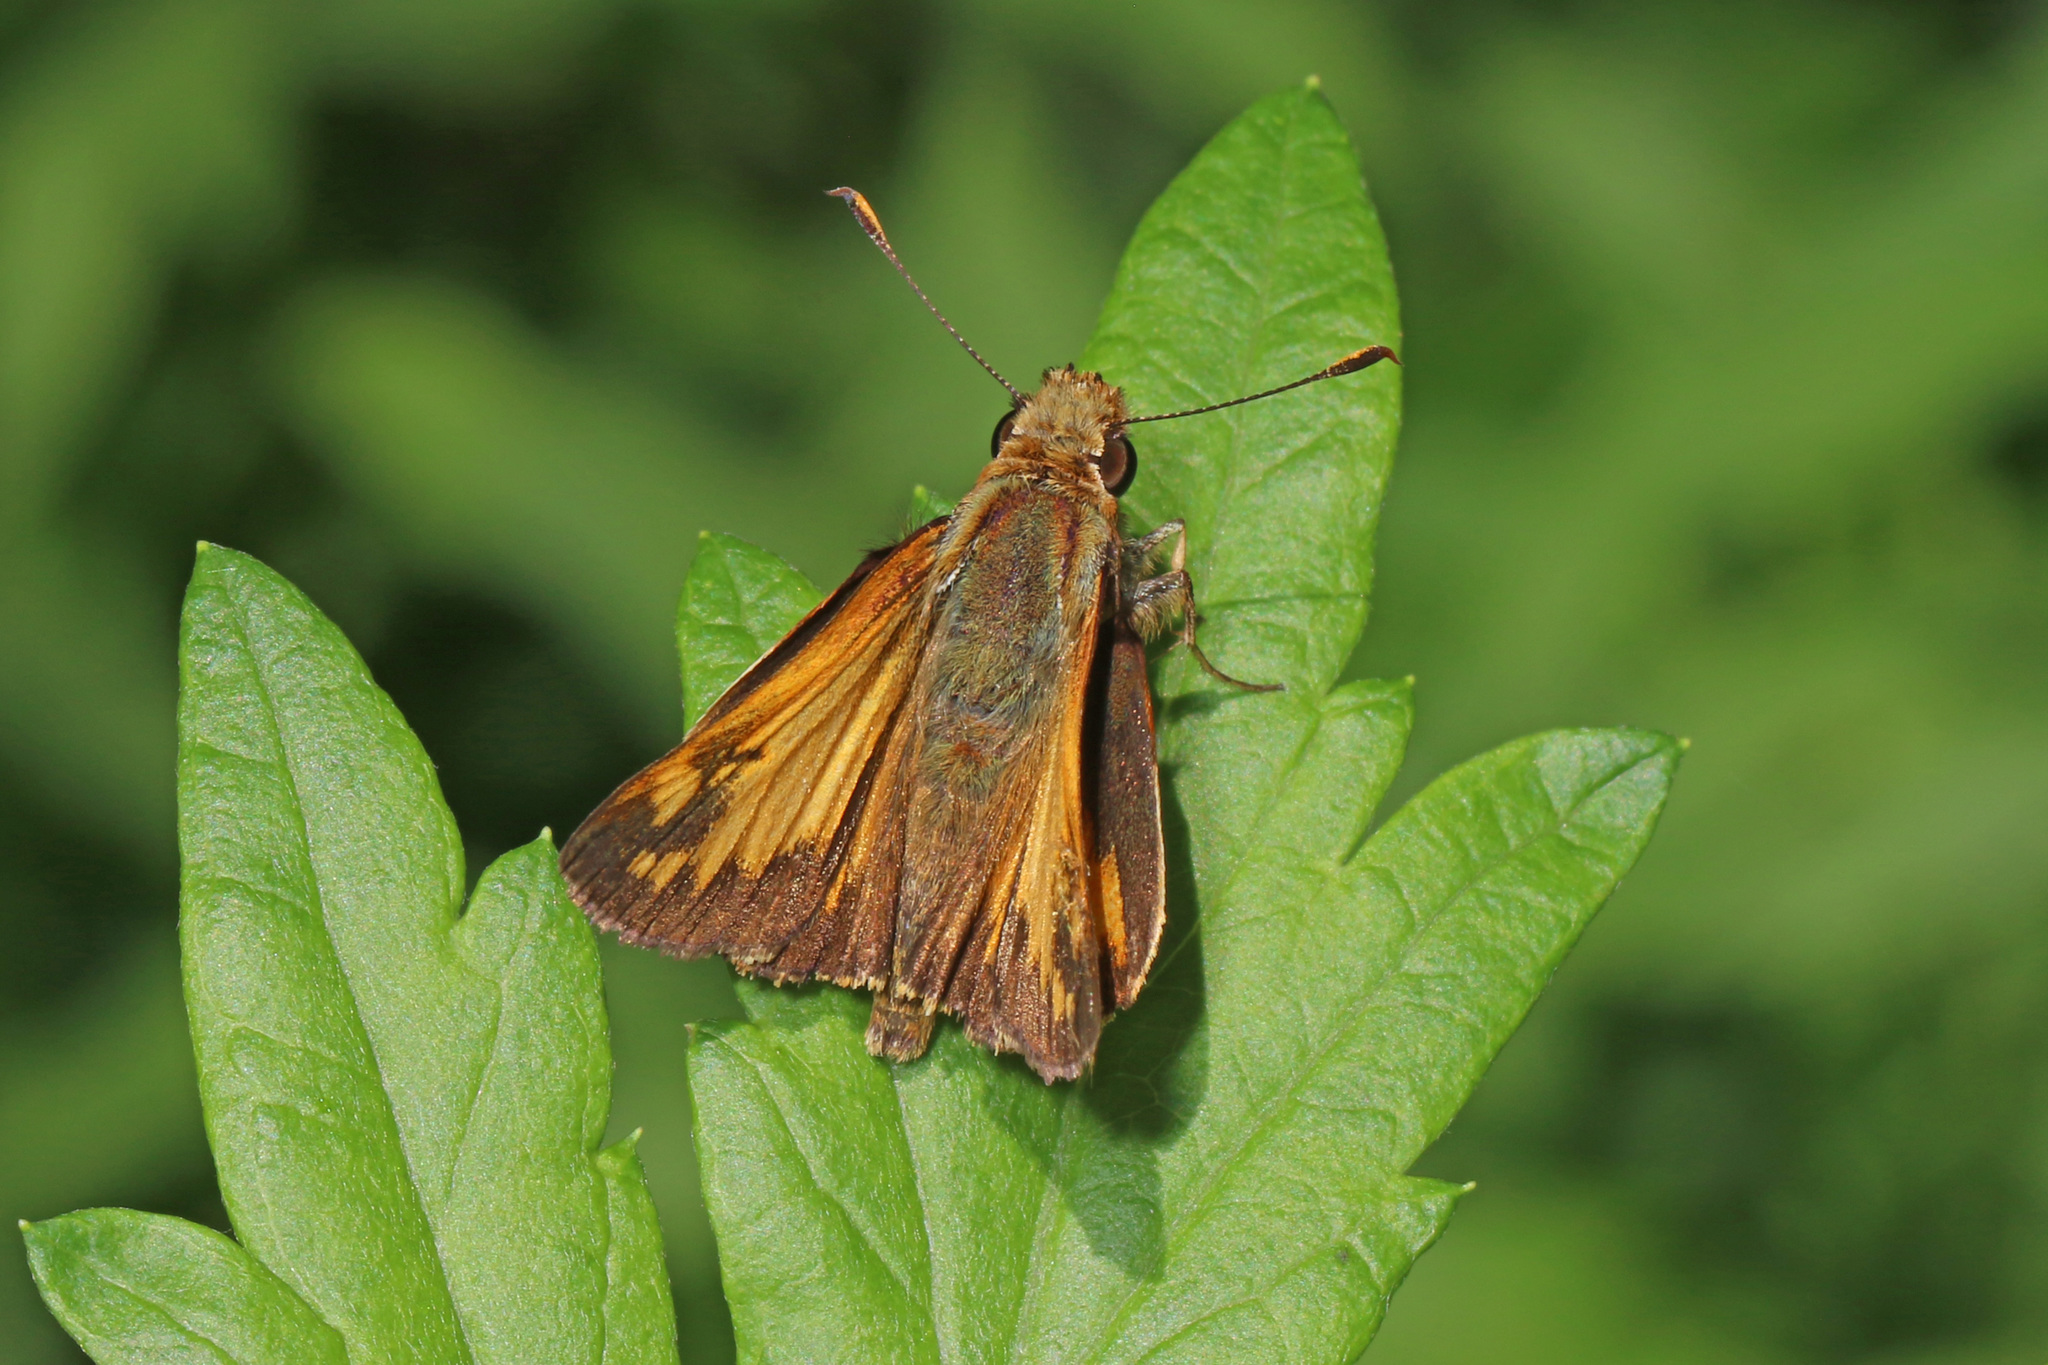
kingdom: Animalia
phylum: Arthropoda
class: Insecta
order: Lepidoptera
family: Hesperiidae
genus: Lon
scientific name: Lon zabulon
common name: Zabulon skipper
